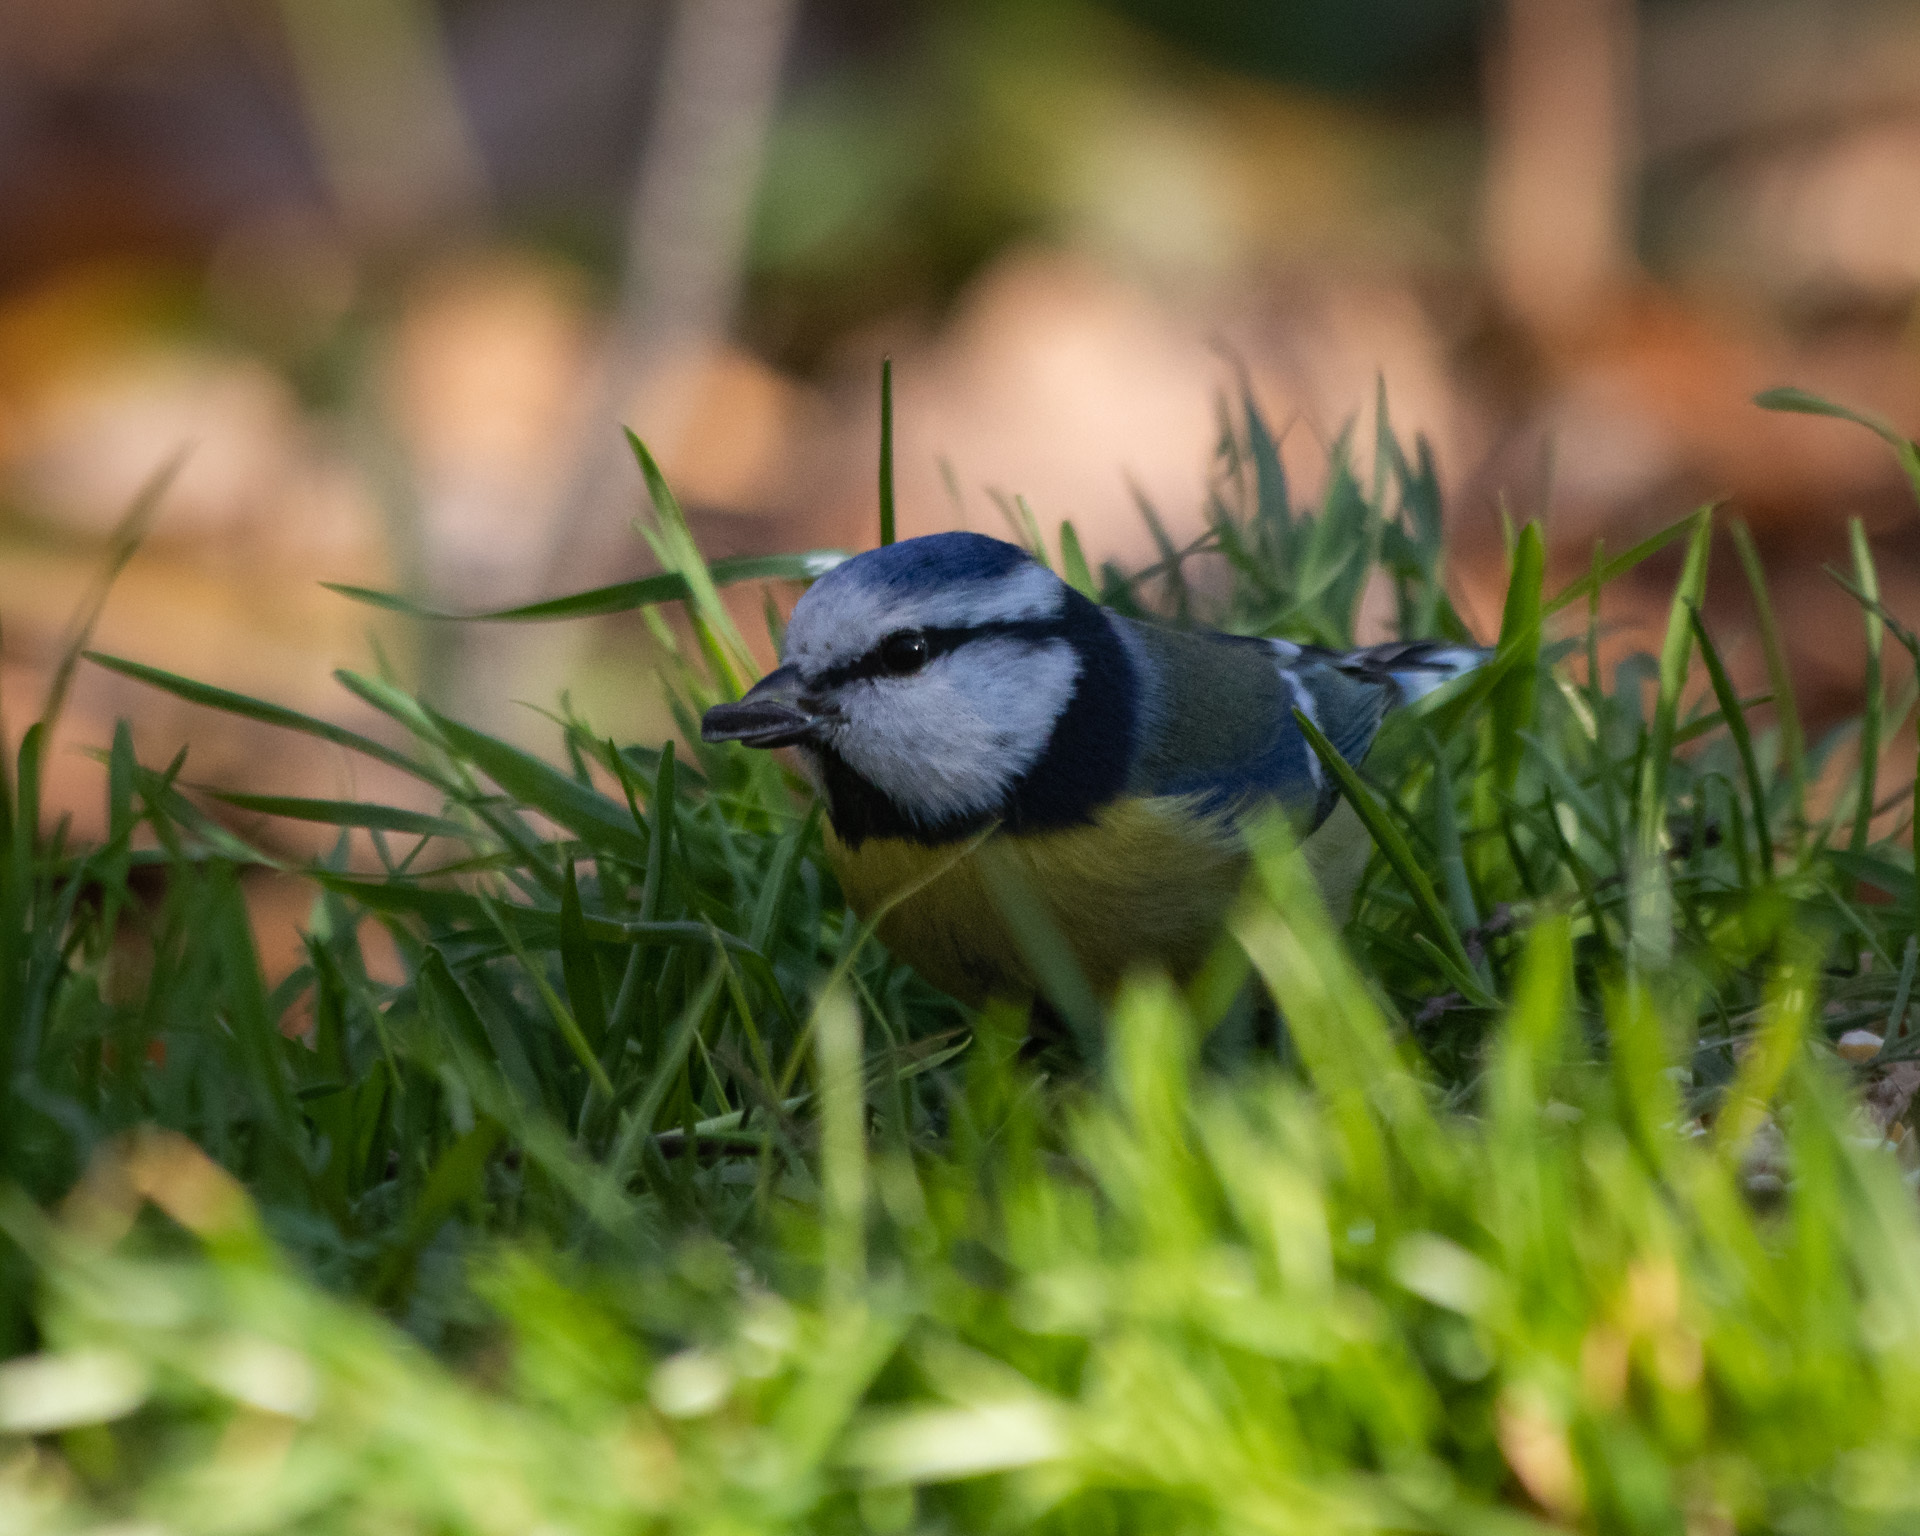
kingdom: Animalia
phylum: Chordata
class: Aves
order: Passeriformes
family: Paridae
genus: Cyanistes
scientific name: Cyanistes caeruleus
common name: Eurasian blue tit
